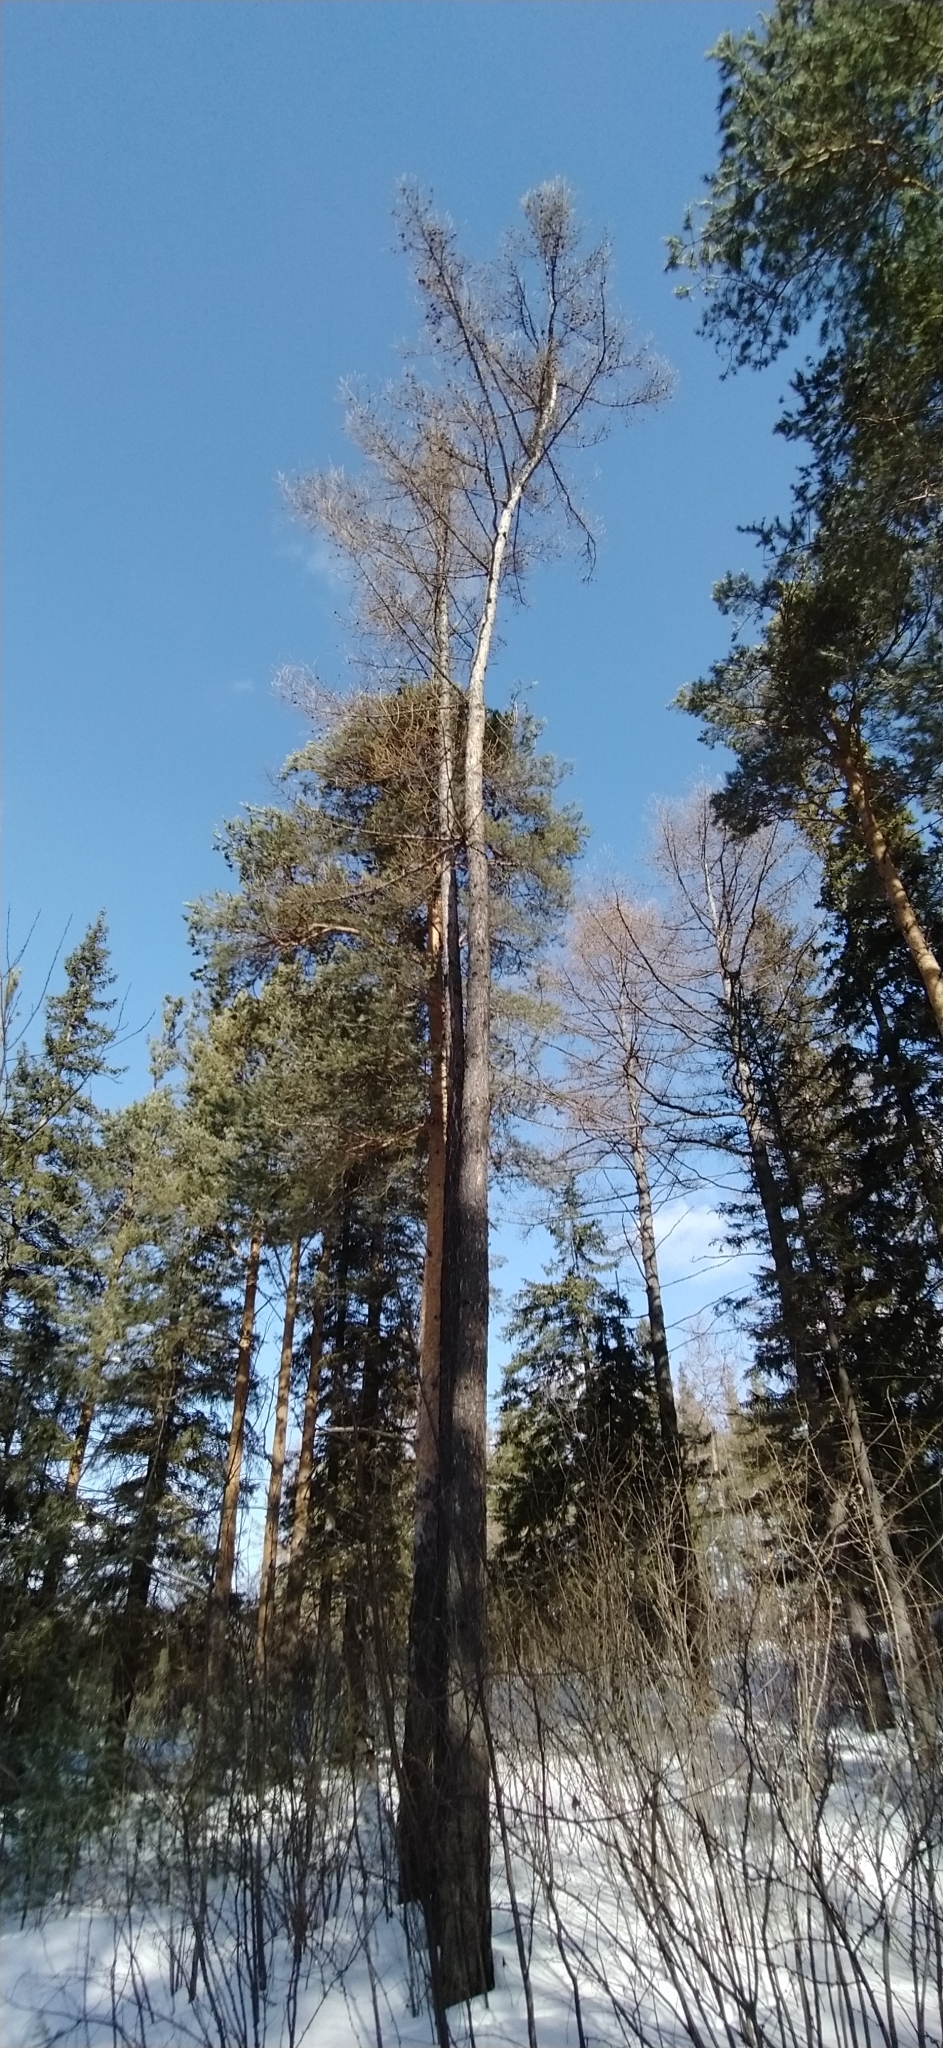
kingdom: Plantae
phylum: Tracheophyta
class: Pinopsida
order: Pinales
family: Pinaceae
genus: Larix
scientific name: Larix sibirica
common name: Siberian larch
